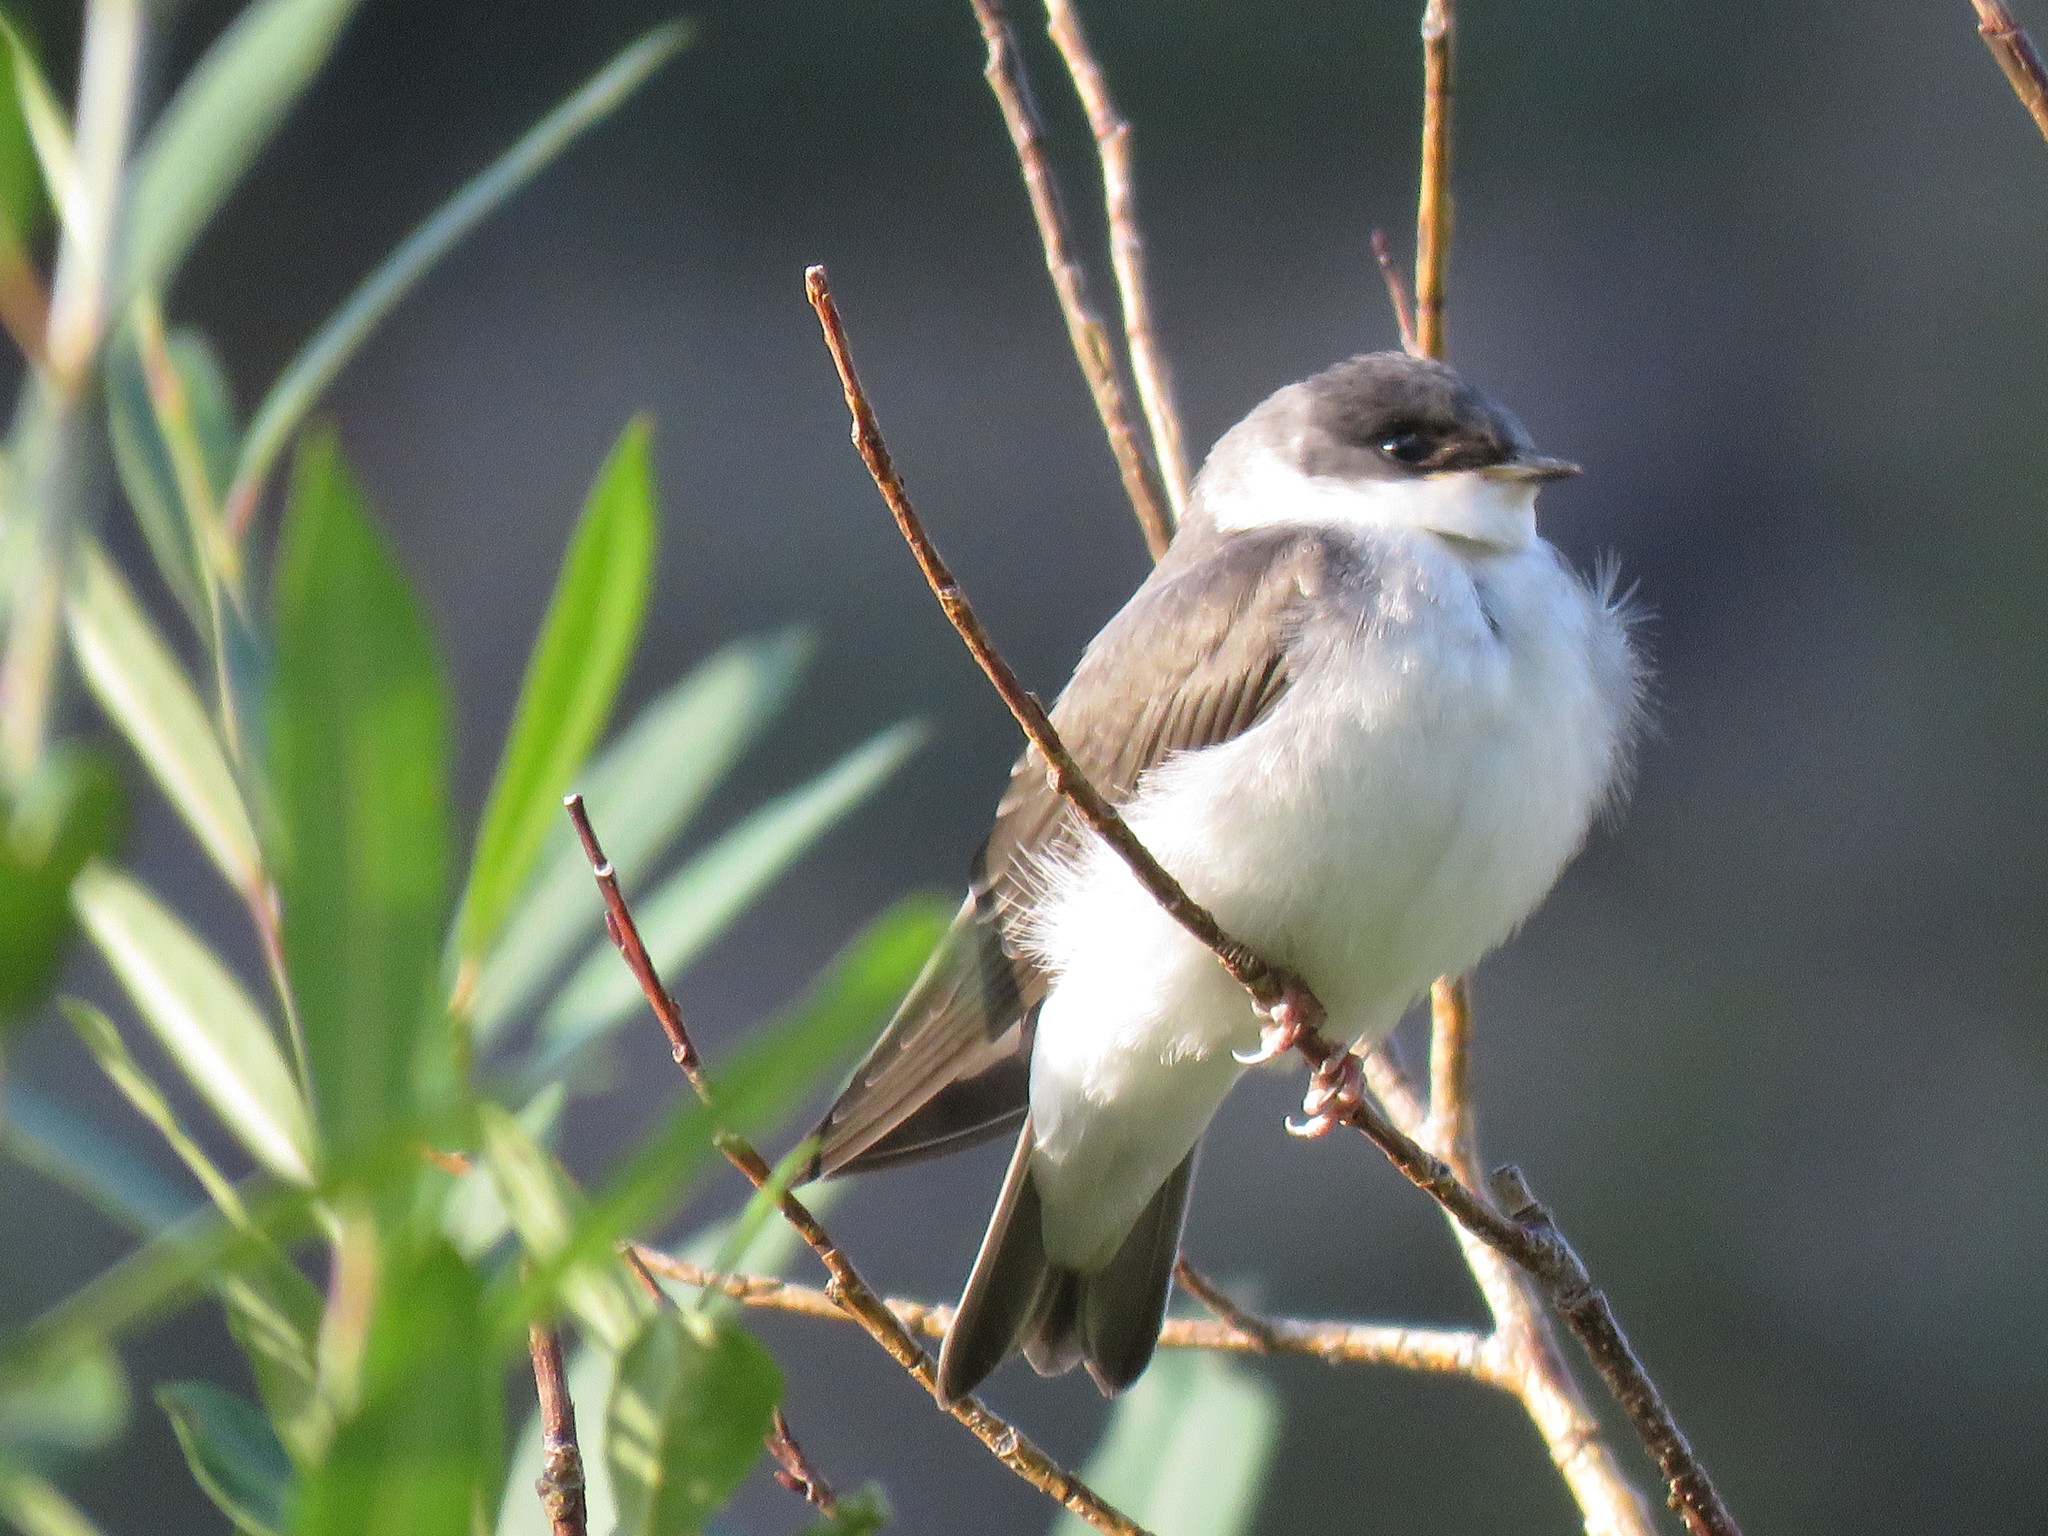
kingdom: Animalia
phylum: Chordata
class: Aves
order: Passeriformes
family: Hirundinidae
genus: Tachycineta
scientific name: Tachycineta bicolor
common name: Tree swallow
